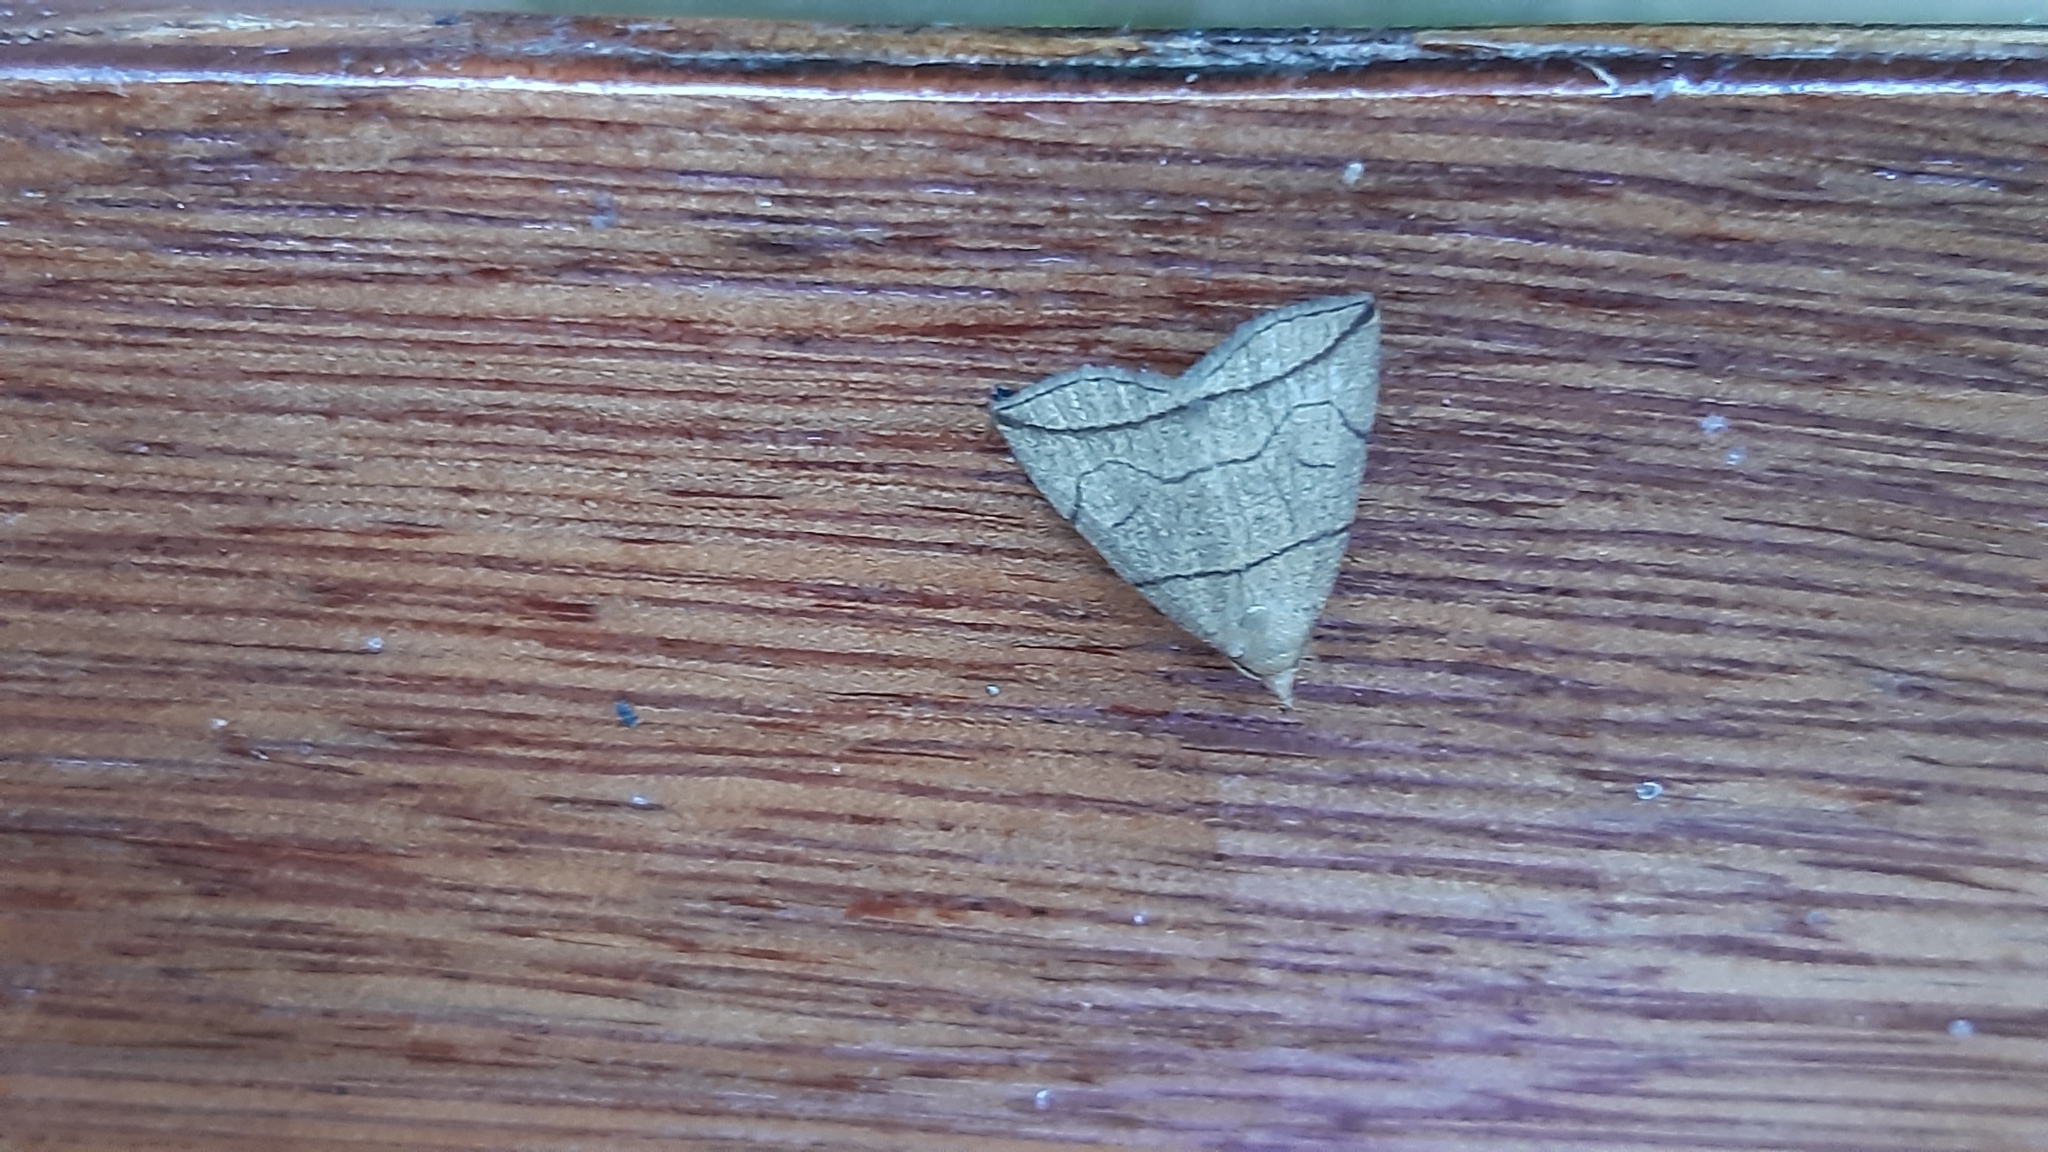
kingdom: Animalia
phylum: Arthropoda
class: Insecta
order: Lepidoptera
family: Erebidae
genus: Herminia
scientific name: Herminia grisealis
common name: Small fan-foot
